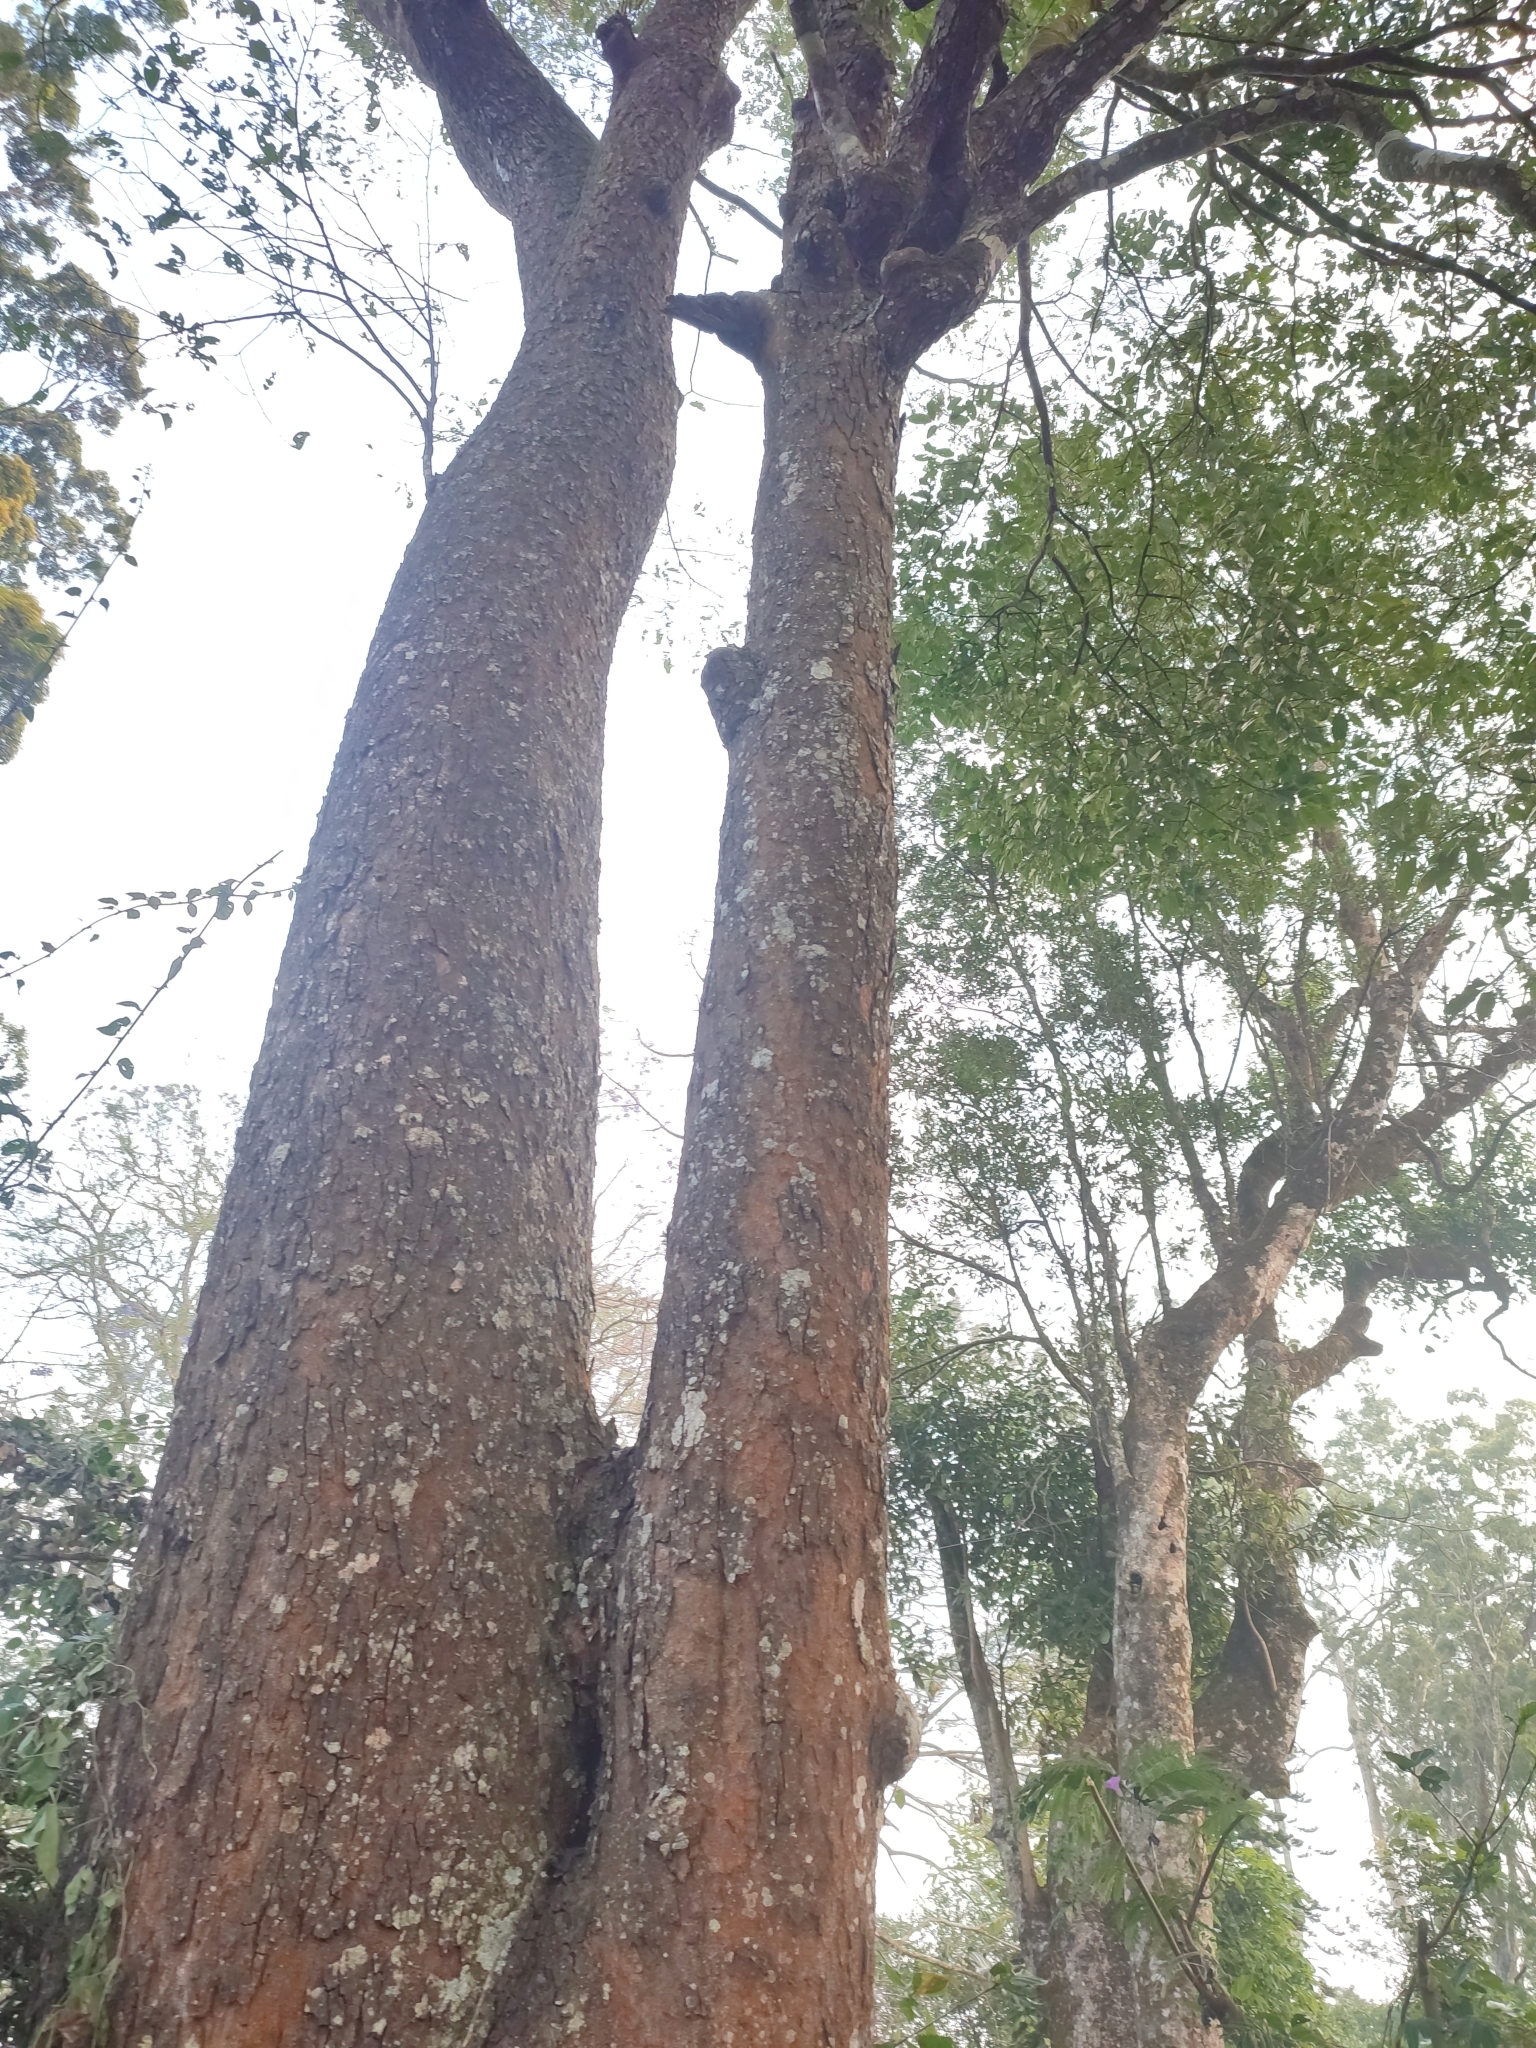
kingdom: Plantae
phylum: Tracheophyta
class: Magnoliopsida
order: Rosales
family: Rosaceae
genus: Prunus
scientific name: Prunus ceylanica
